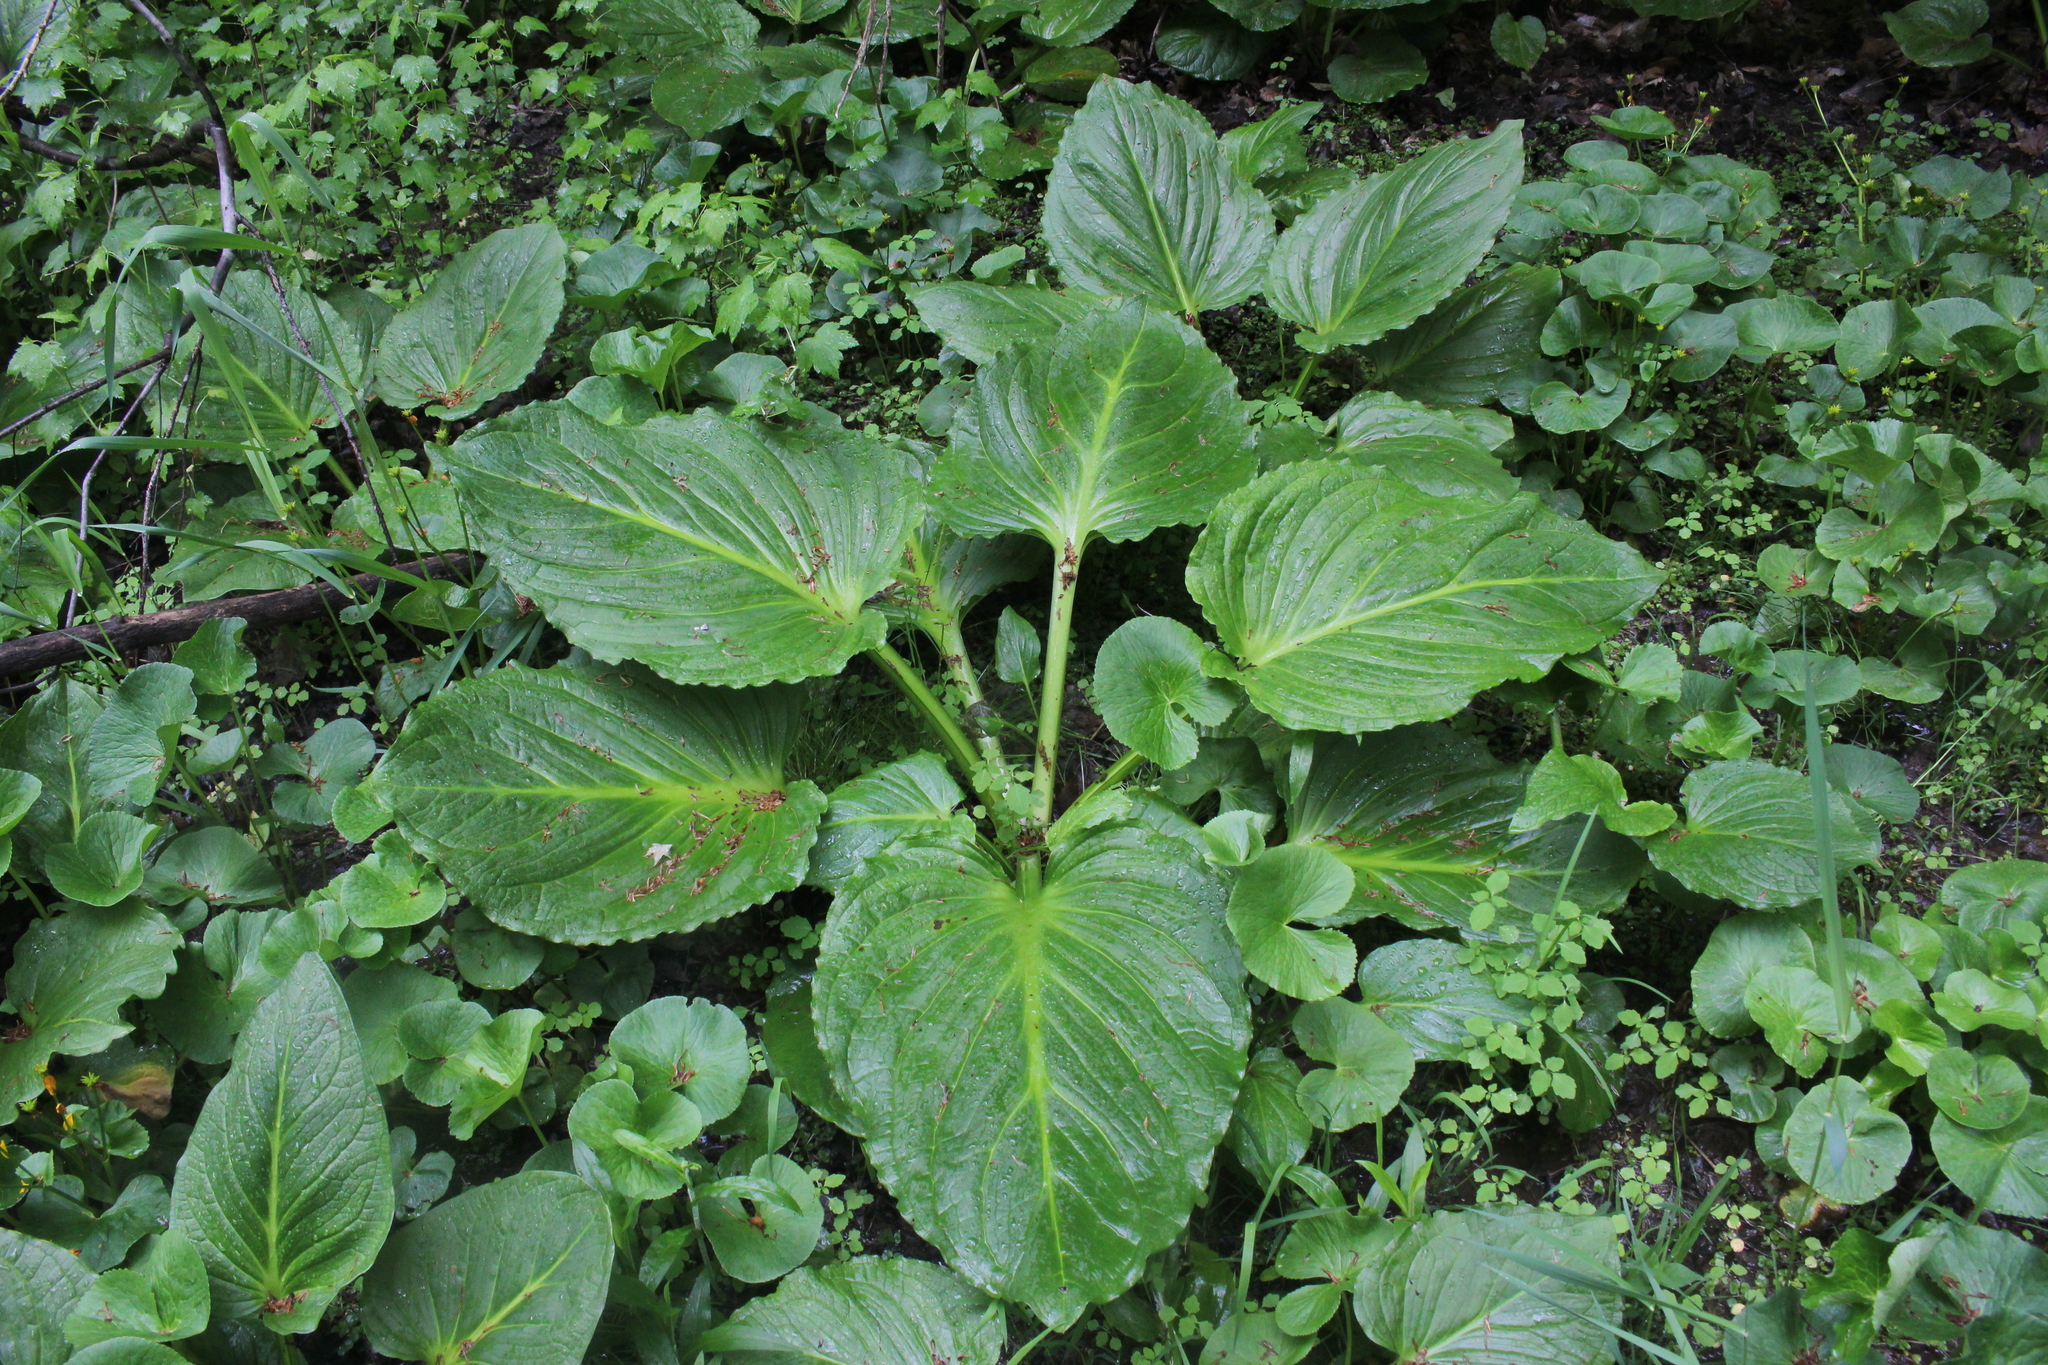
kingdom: Plantae
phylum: Tracheophyta
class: Liliopsida
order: Alismatales
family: Araceae
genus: Symplocarpus
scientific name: Symplocarpus foetidus
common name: Eastern skunk cabbage
